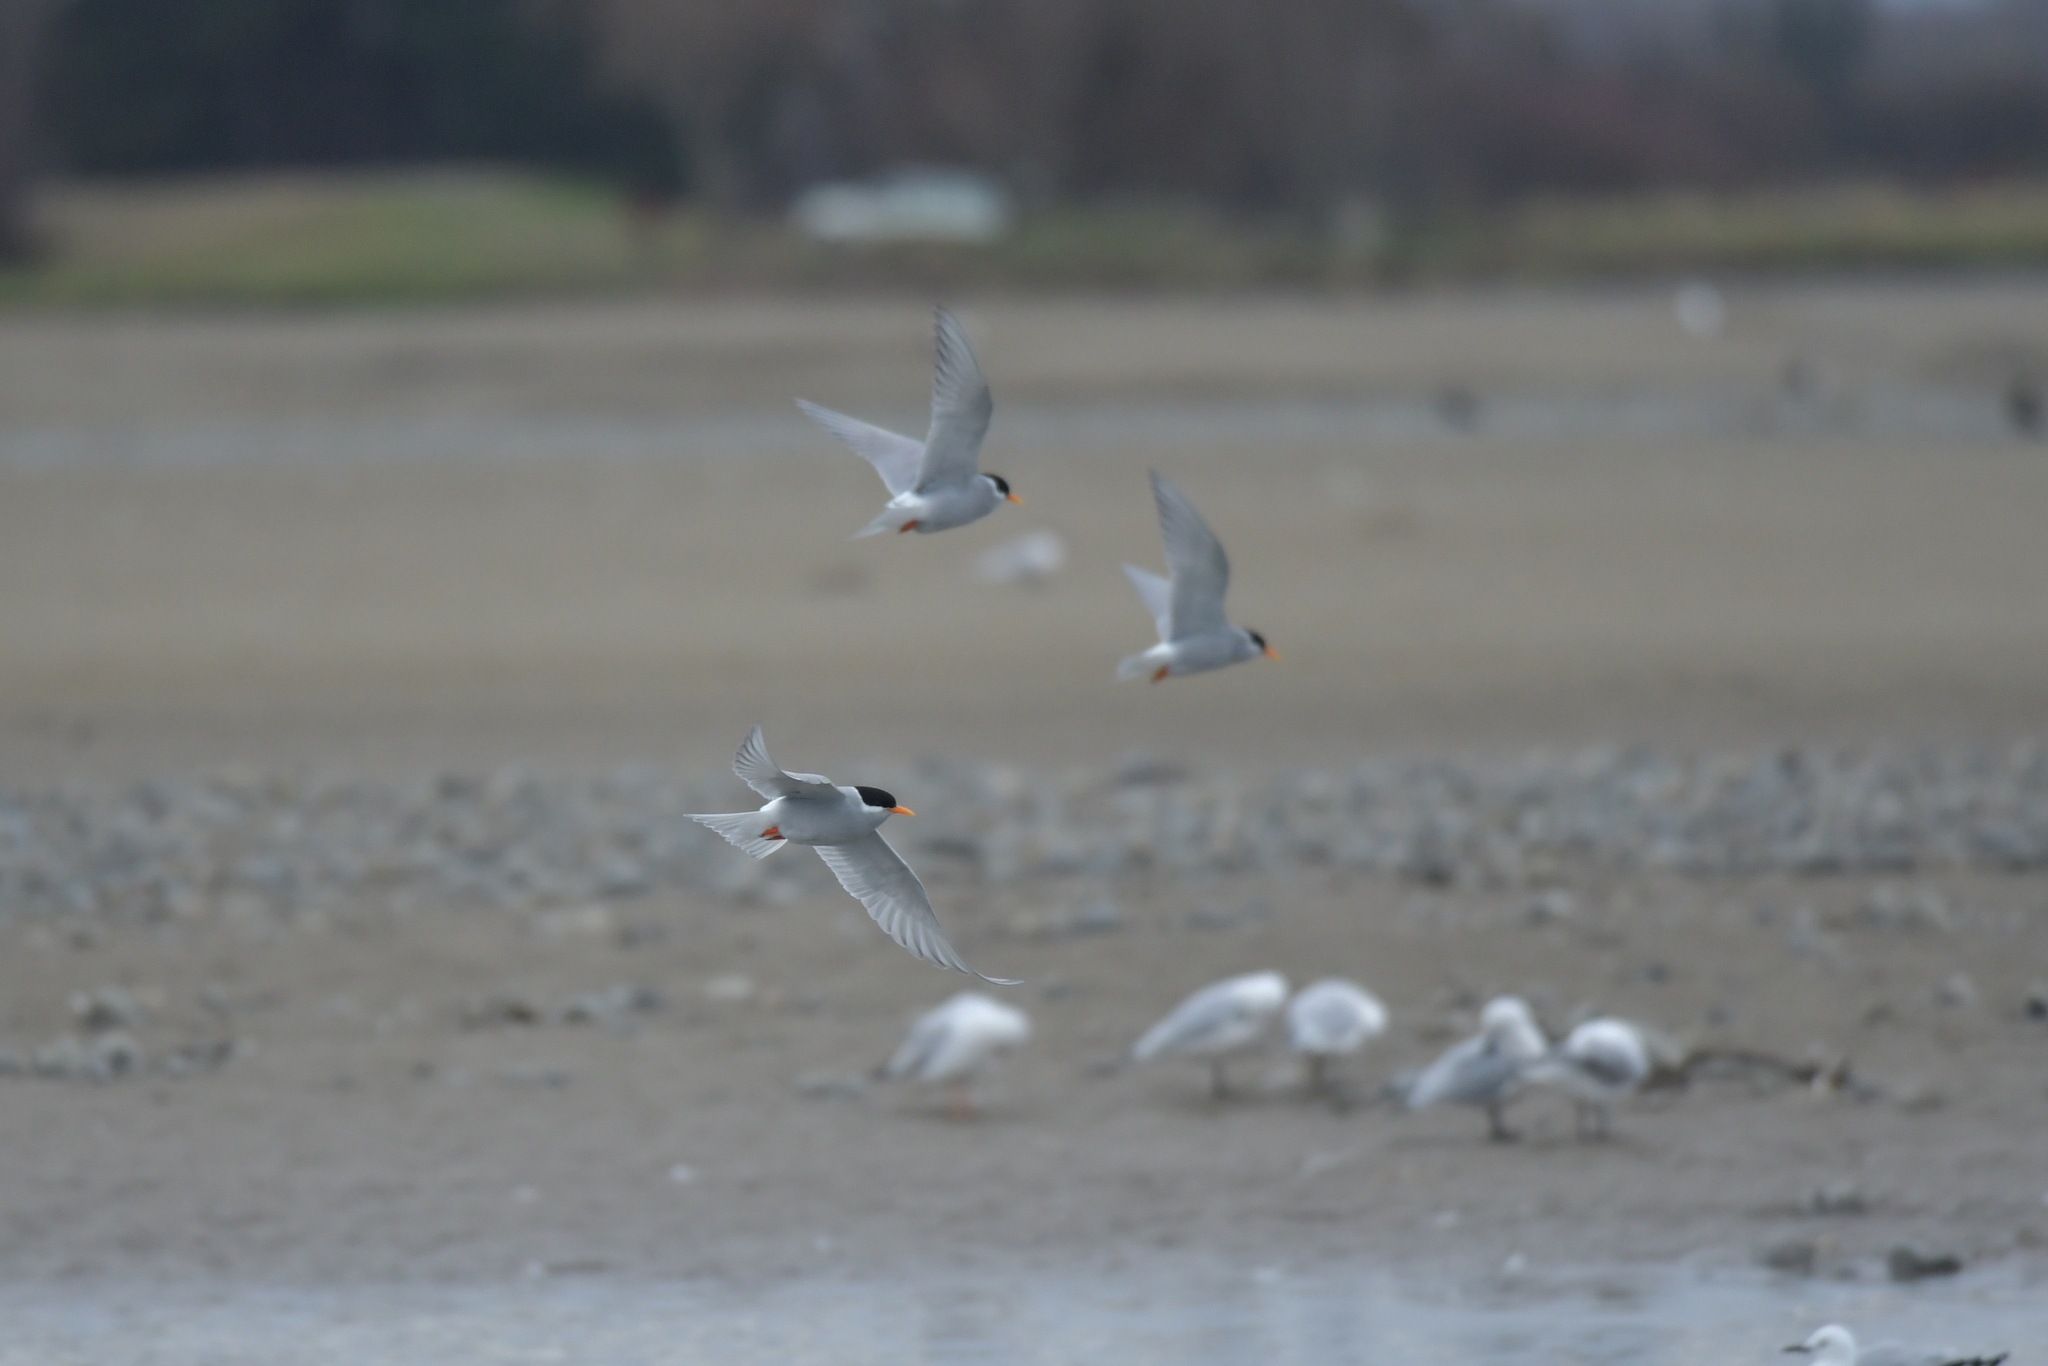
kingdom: Animalia
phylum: Chordata
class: Aves
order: Charadriiformes
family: Laridae
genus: Chlidonias
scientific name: Chlidonias albostriatus
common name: Black-fronted tern
